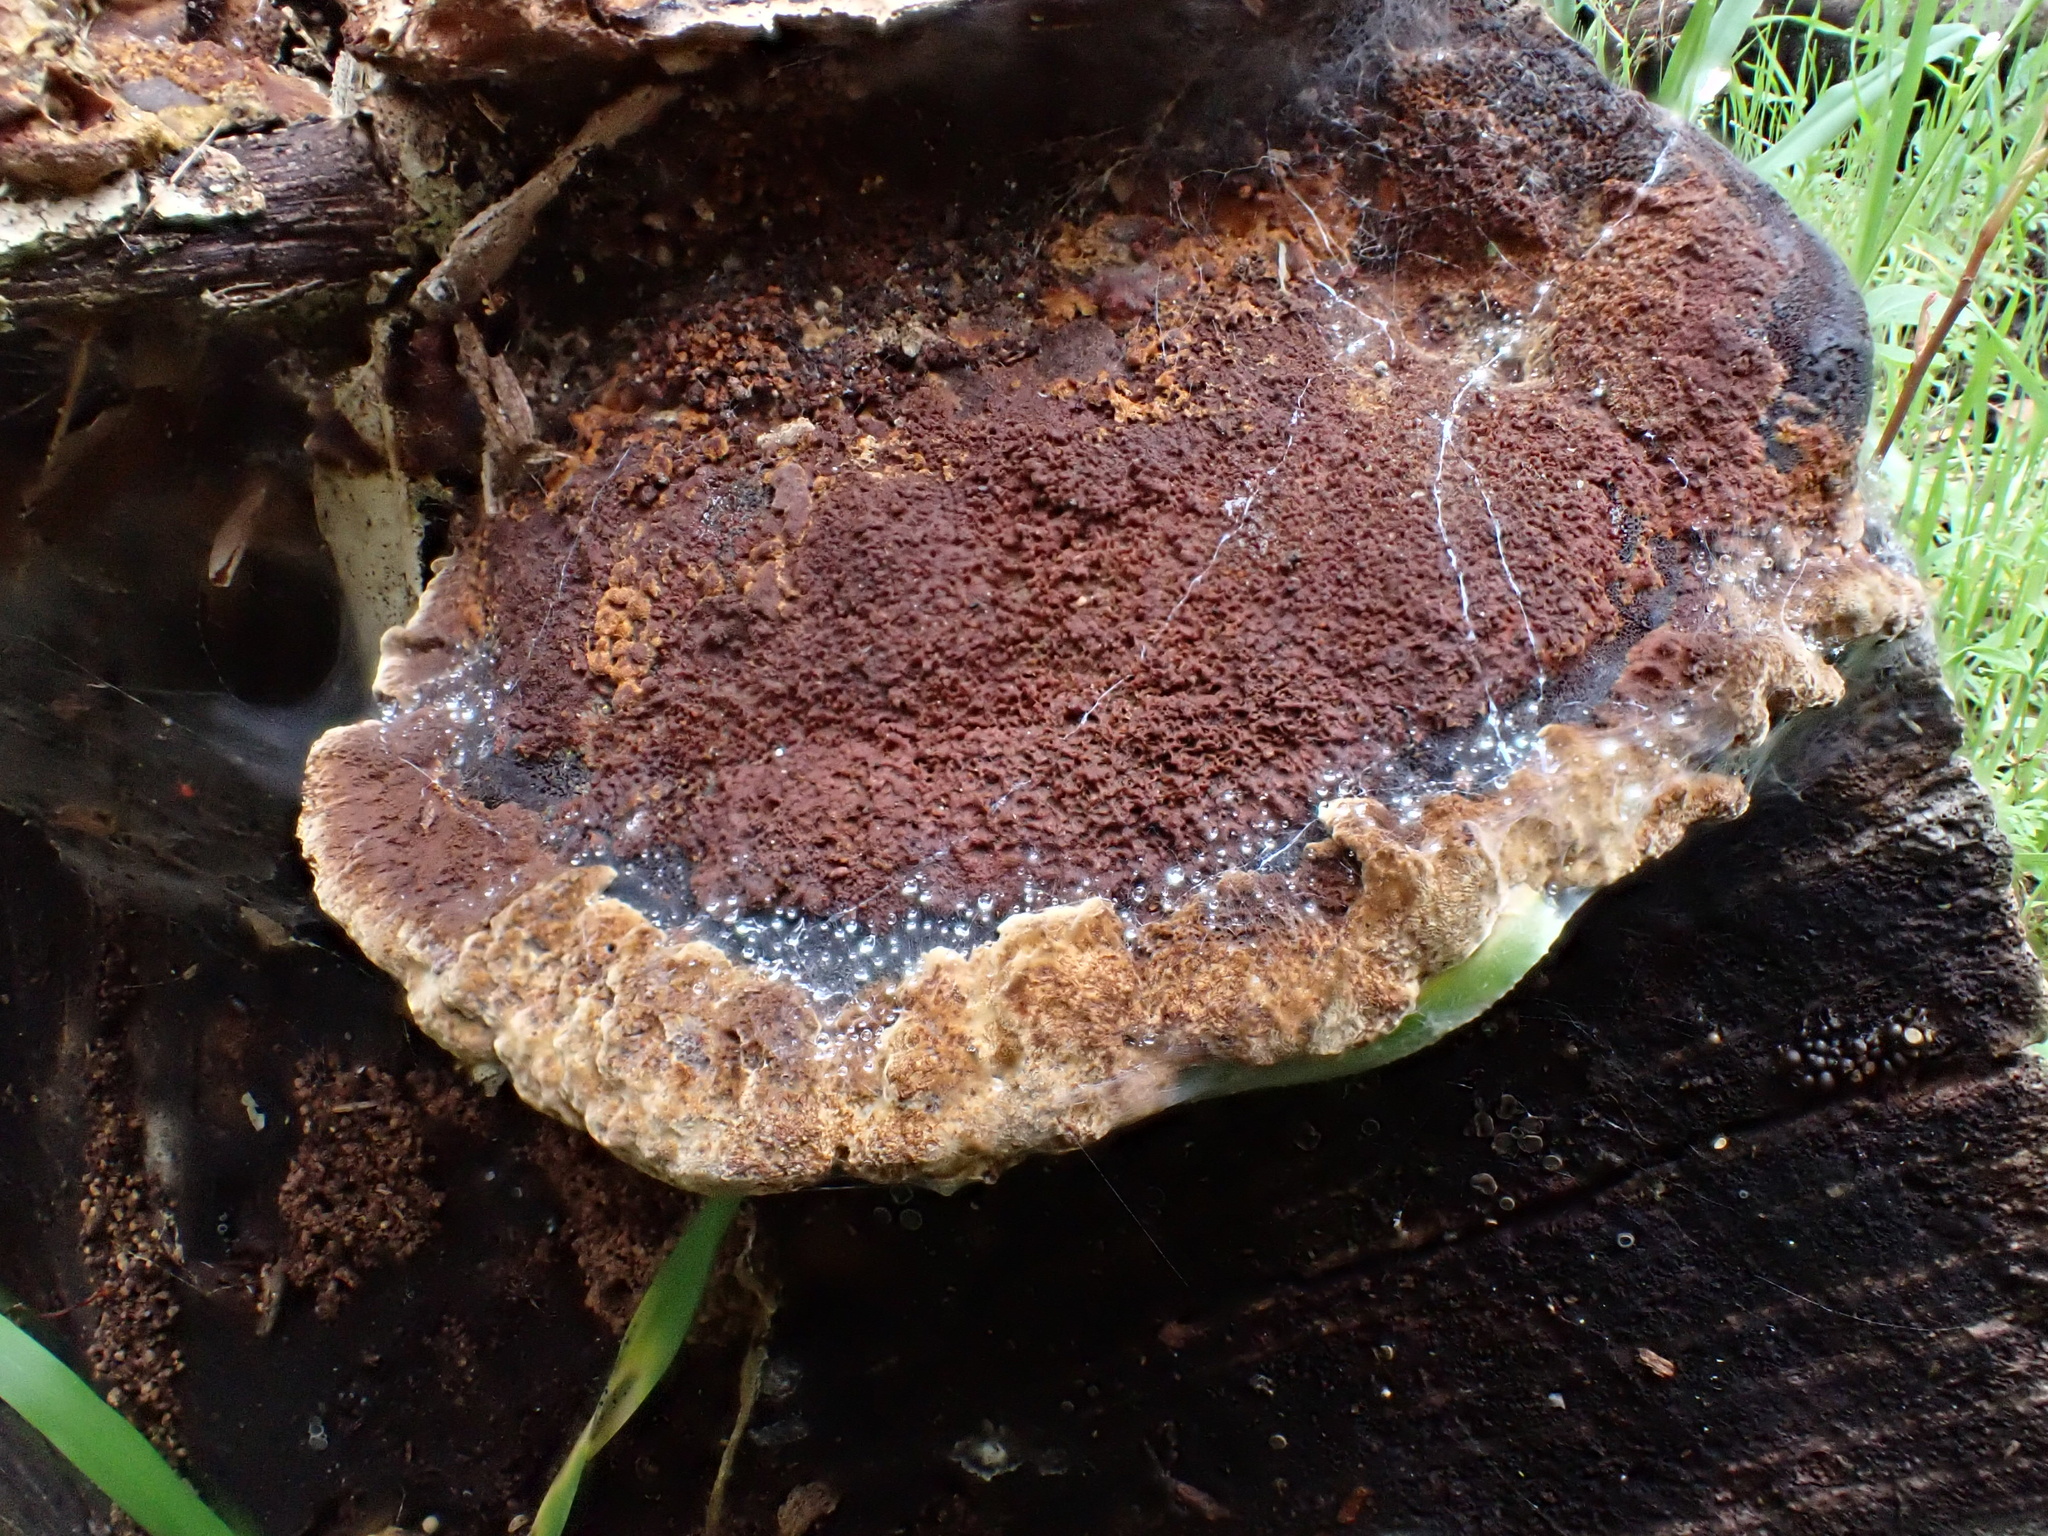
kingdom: Fungi
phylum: Basidiomycota
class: Agaricomycetes
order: Hymenochaetales
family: Hymenochaetaceae
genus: Phellinus
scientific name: Phellinus gilvus
